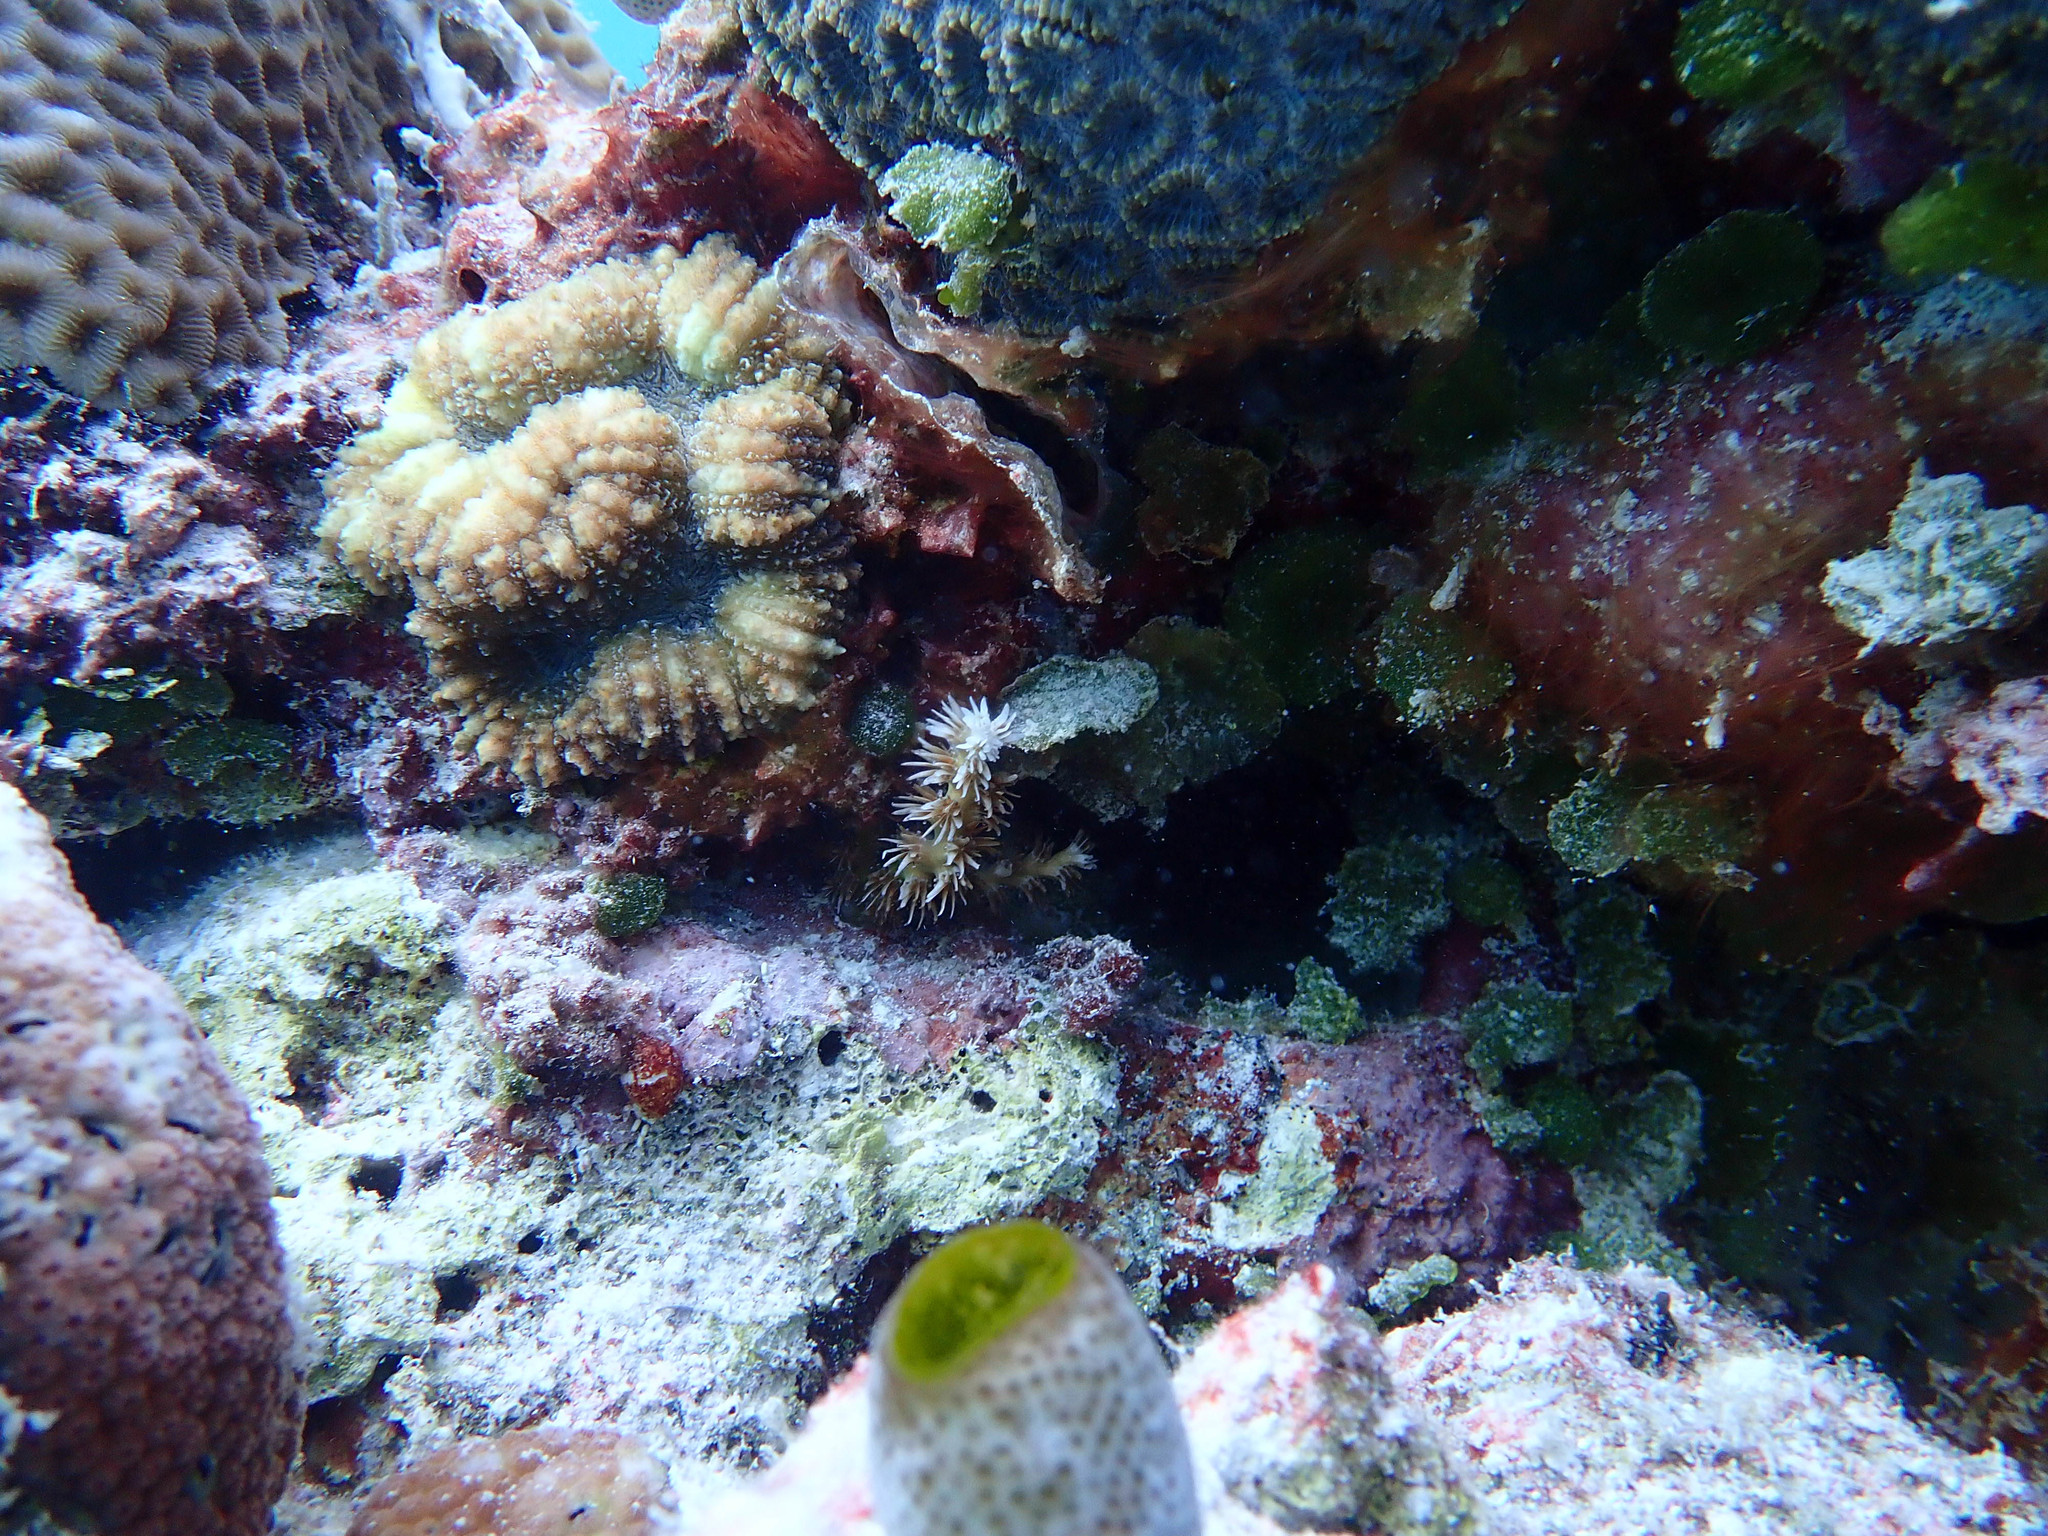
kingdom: Animalia
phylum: Cnidaria
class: Anthozoa
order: Scleractinia
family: Euphylliidae
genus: Galaxea
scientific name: Galaxea horrescens
